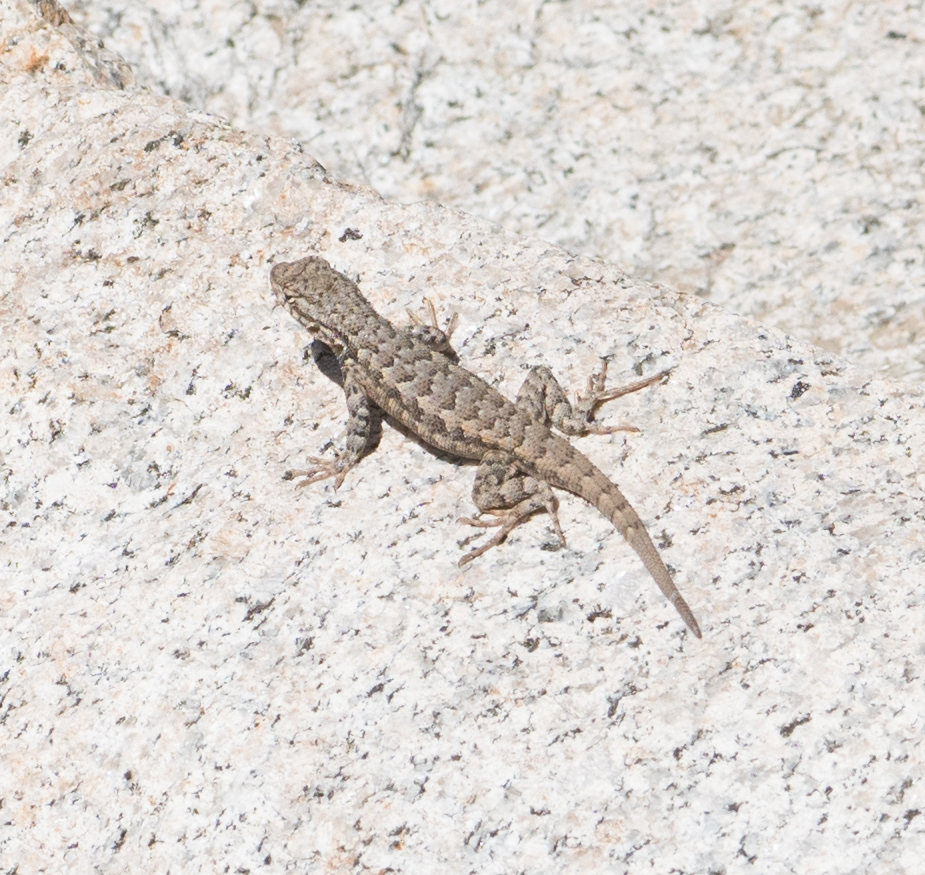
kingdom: Animalia
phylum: Chordata
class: Squamata
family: Phrynosomatidae
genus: Sceloporus
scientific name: Sceloporus occidentalis
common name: Western fence lizard
